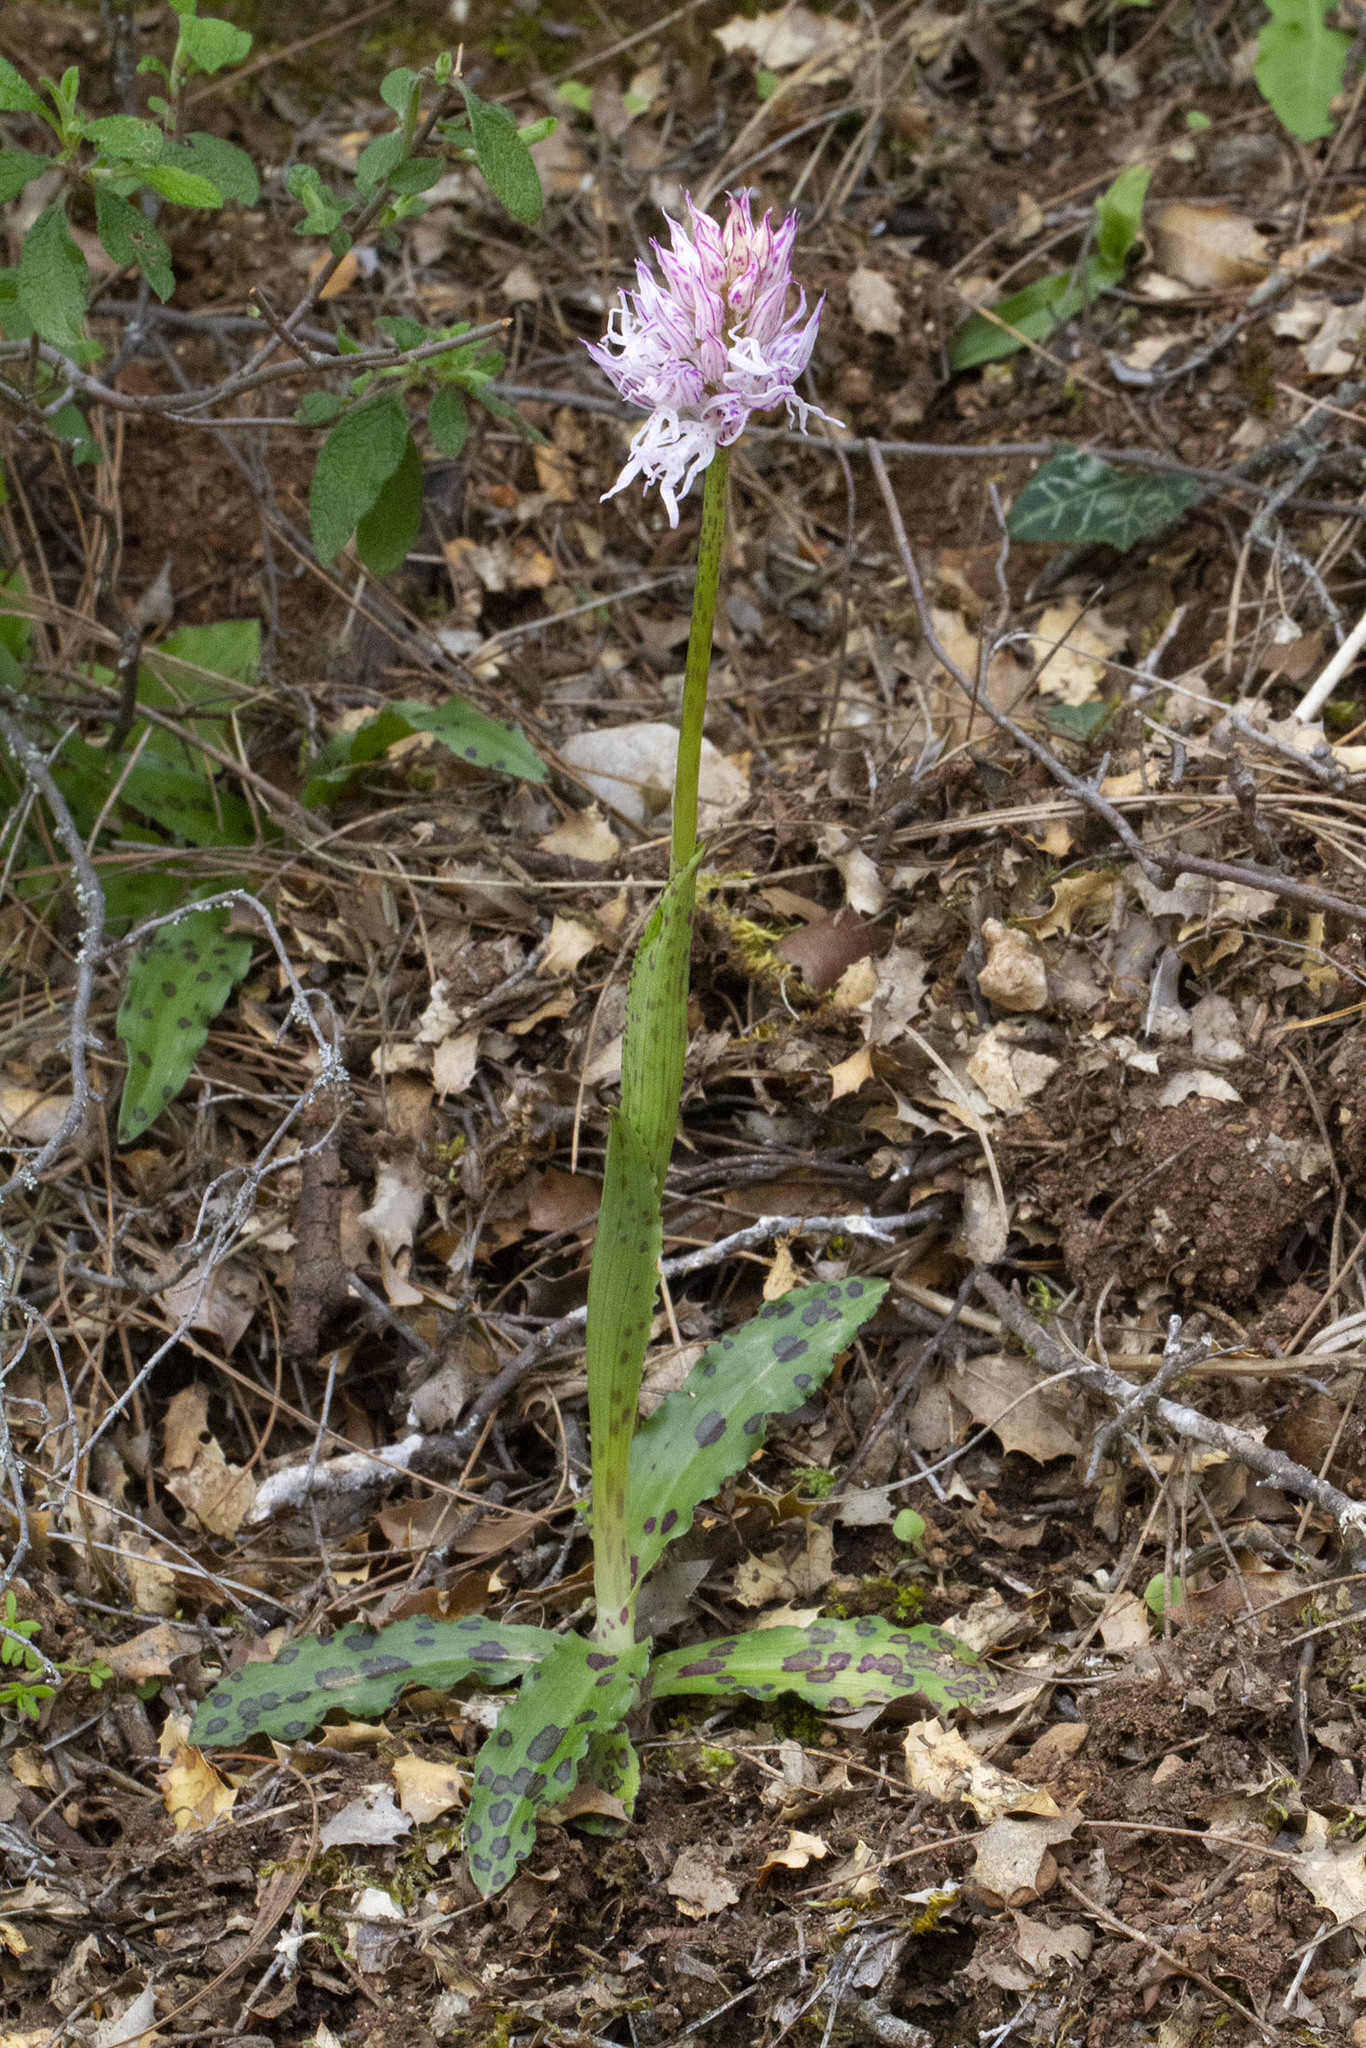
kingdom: Plantae
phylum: Tracheophyta
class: Liliopsida
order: Asparagales
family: Orchidaceae
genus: Orchis
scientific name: Orchis italica
